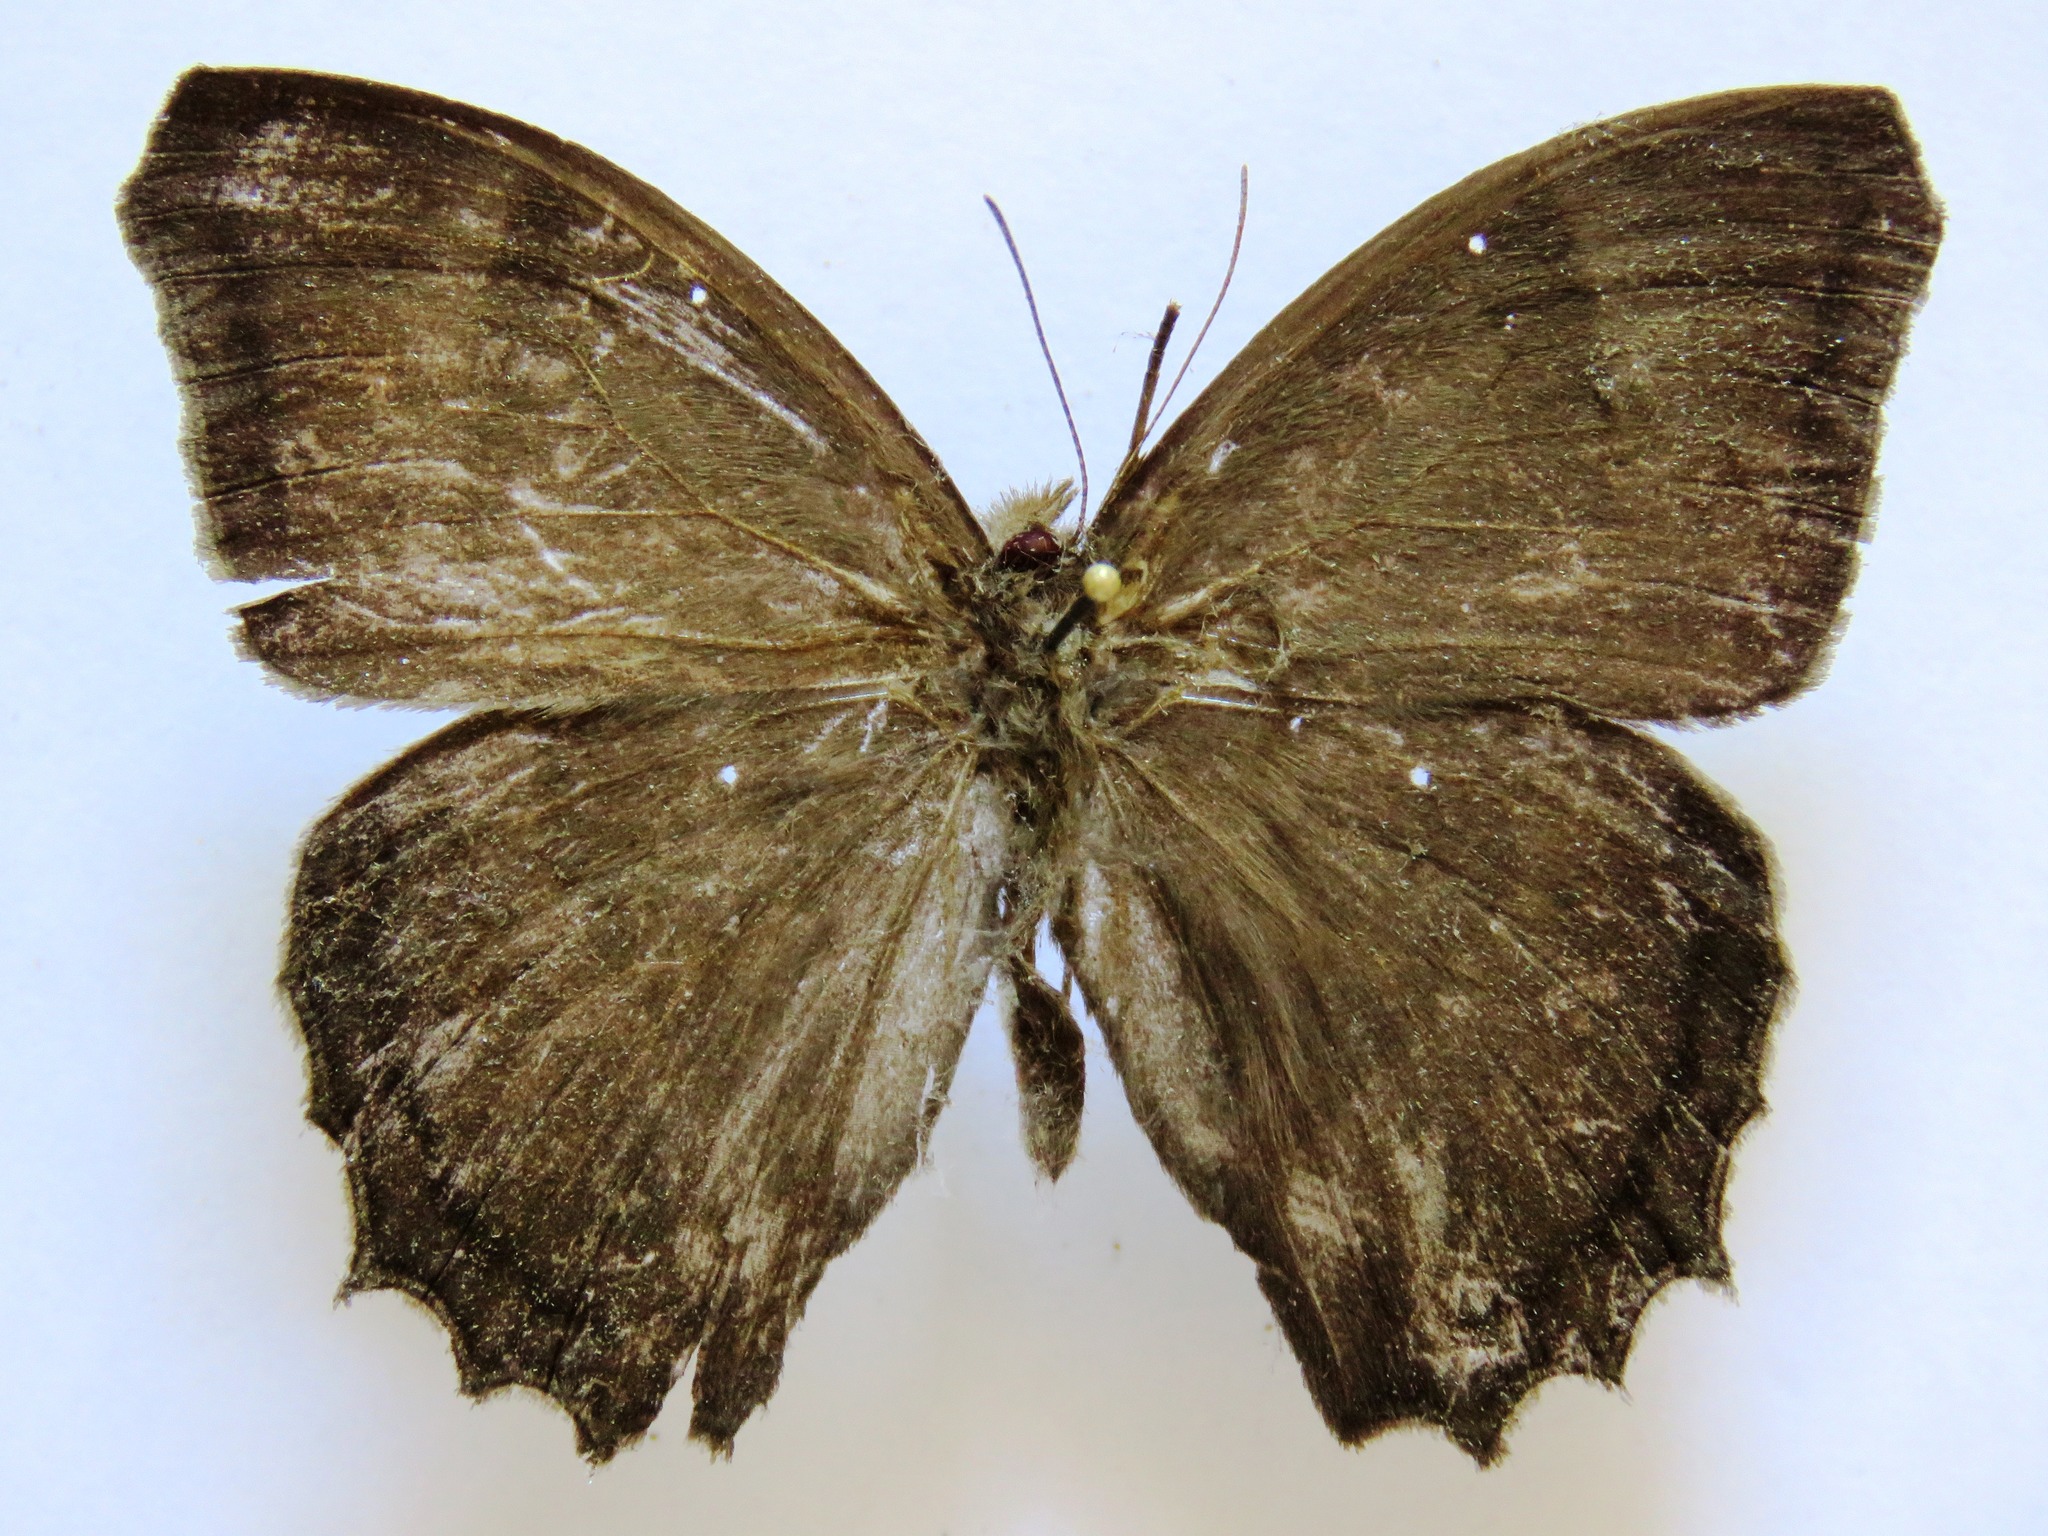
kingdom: Animalia
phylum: Arthropoda
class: Insecta
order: Lepidoptera
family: Nymphalidae
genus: Taygetis
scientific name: Taygetis inconspicua
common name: Inconspicuous satyr
